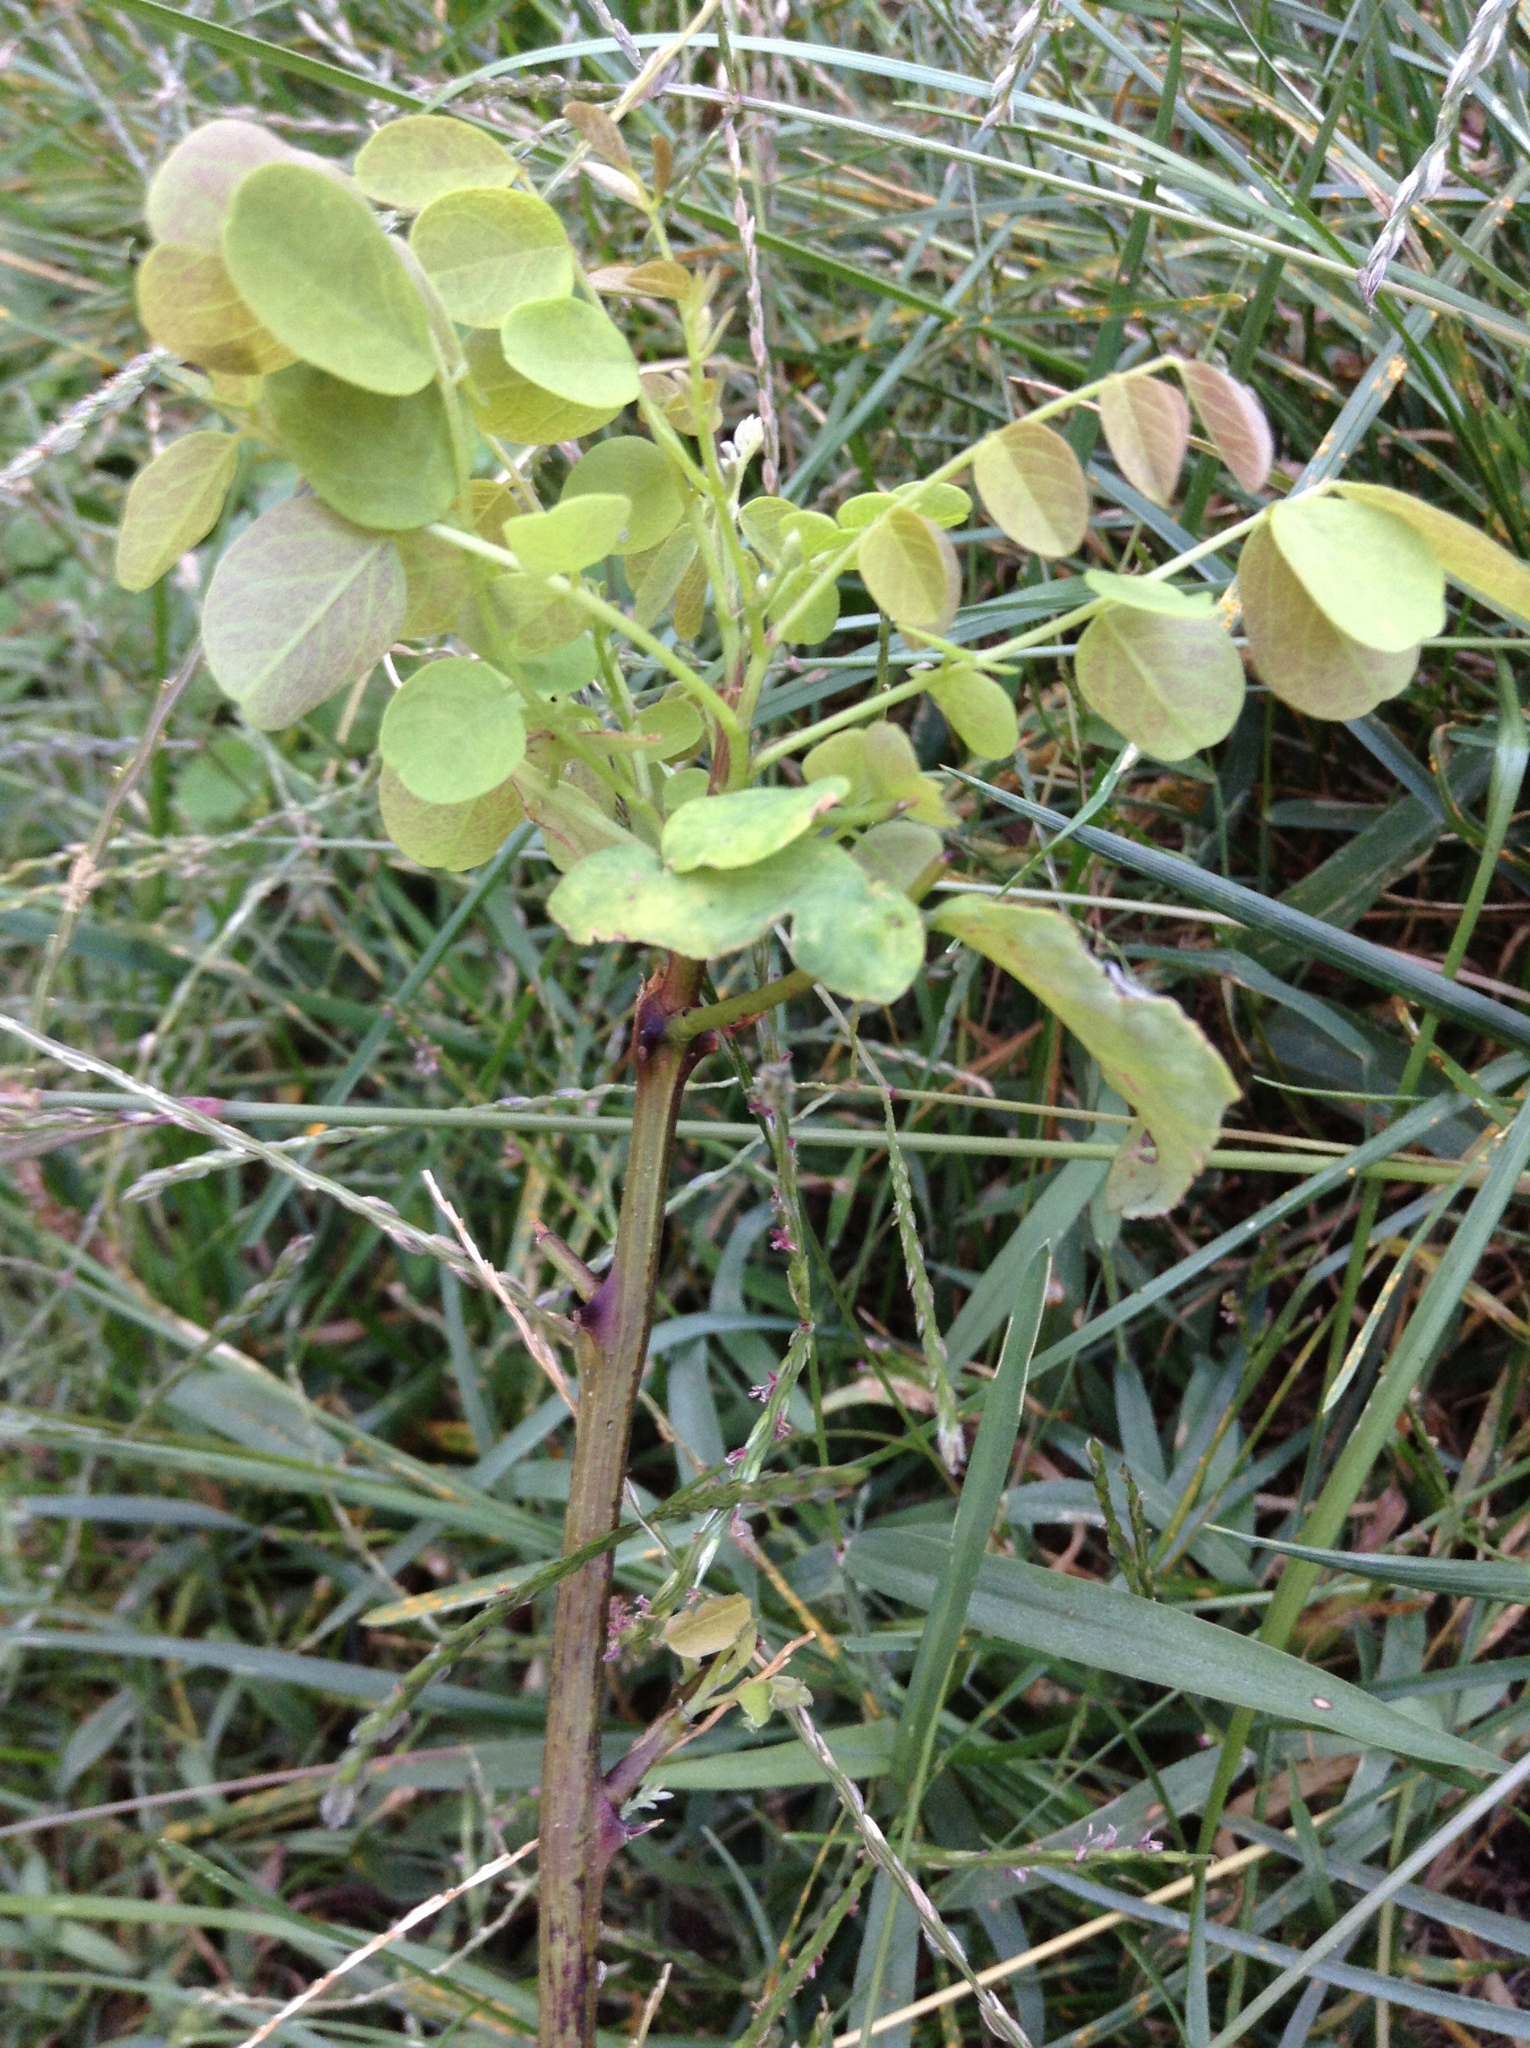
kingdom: Plantae
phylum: Tracheophyta
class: Magnoliopsida
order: Fabales
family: Fabaceae
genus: Robinia
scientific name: Robinia pseudoacacia
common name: Black locust
